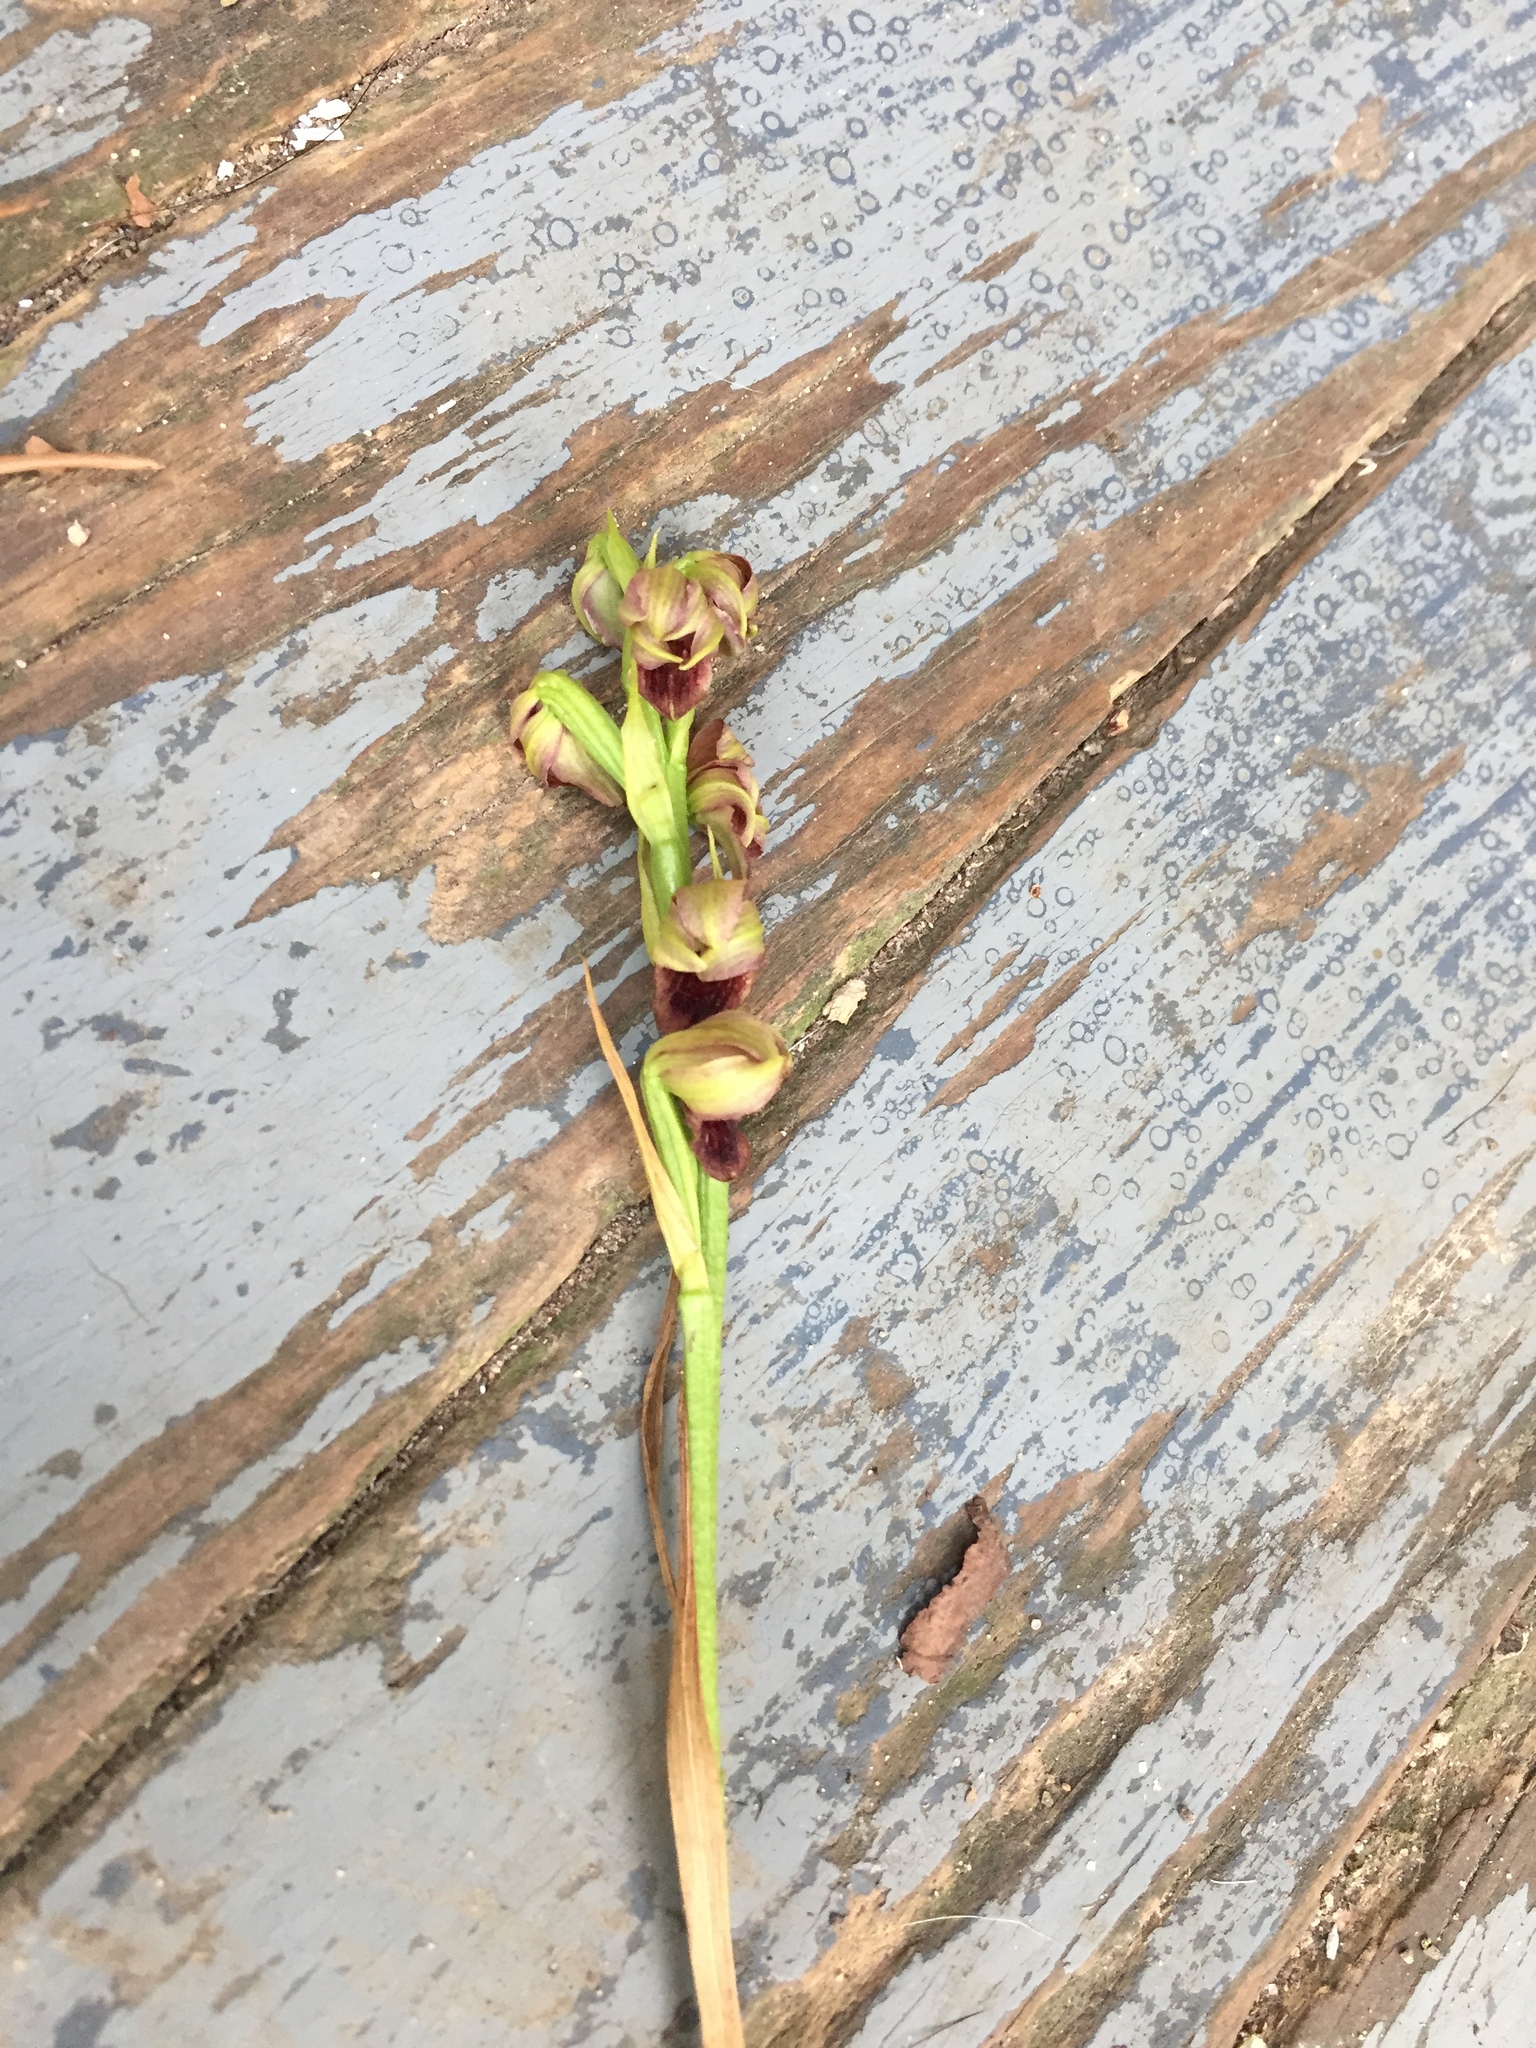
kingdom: Plantae
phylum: Tracheophyta
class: Liliopsida
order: Asparagales
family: Orchidaceae
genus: Eulophia
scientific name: Eulophia ecristata
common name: Giant orchid
